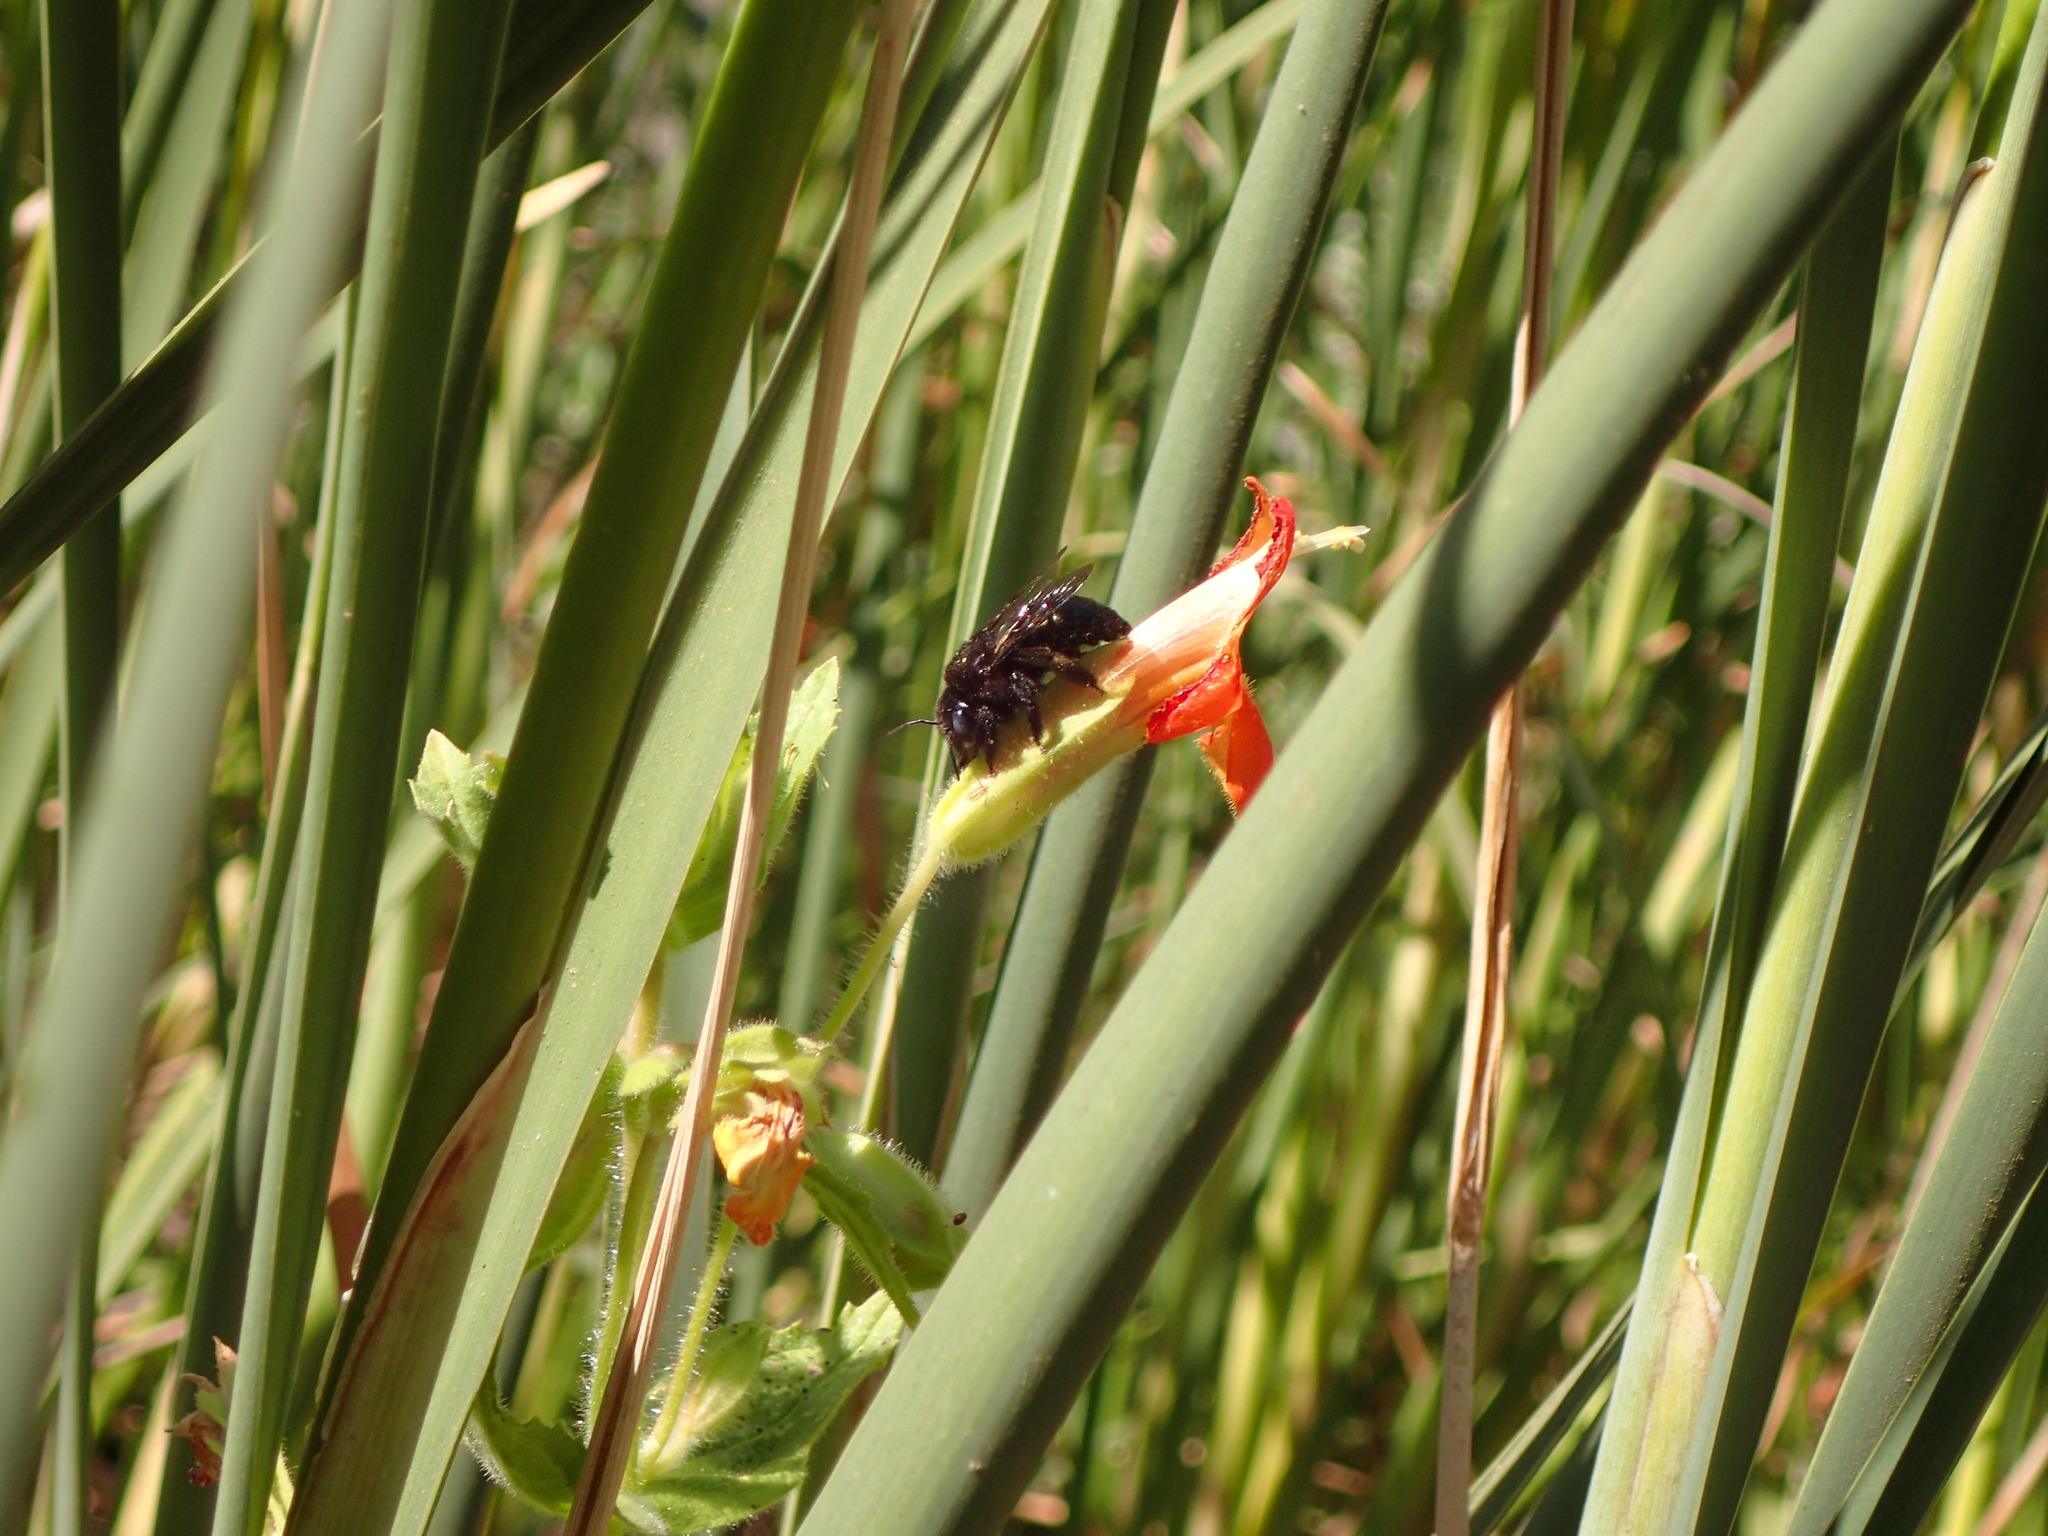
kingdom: Plantae
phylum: Tracheophyta
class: Magnoliopsida
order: Lamiales
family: Phrymaceae
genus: Erythranthe
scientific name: Erythranthe cardinalis
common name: Scarlet monkey-flower
